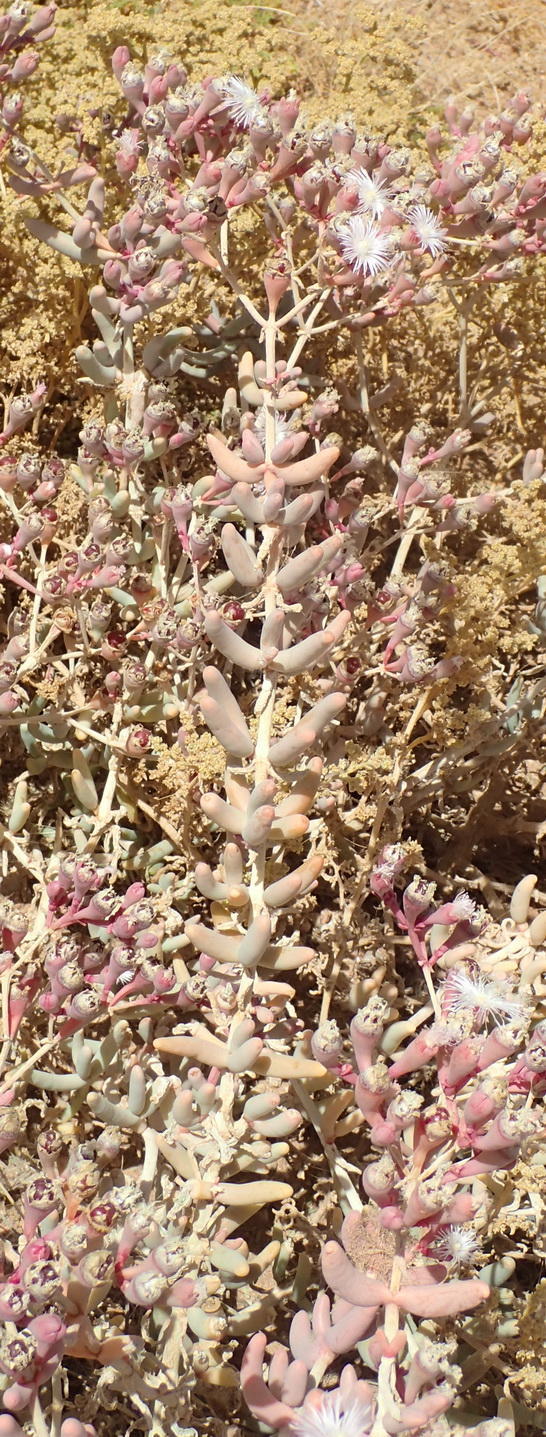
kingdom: Plantae
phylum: Tracheophyta
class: Magnoliopsida
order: Caryophyllales
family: Aizoaceae
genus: Mesembryanthemum
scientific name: Mesembryanthemum tetragonum
